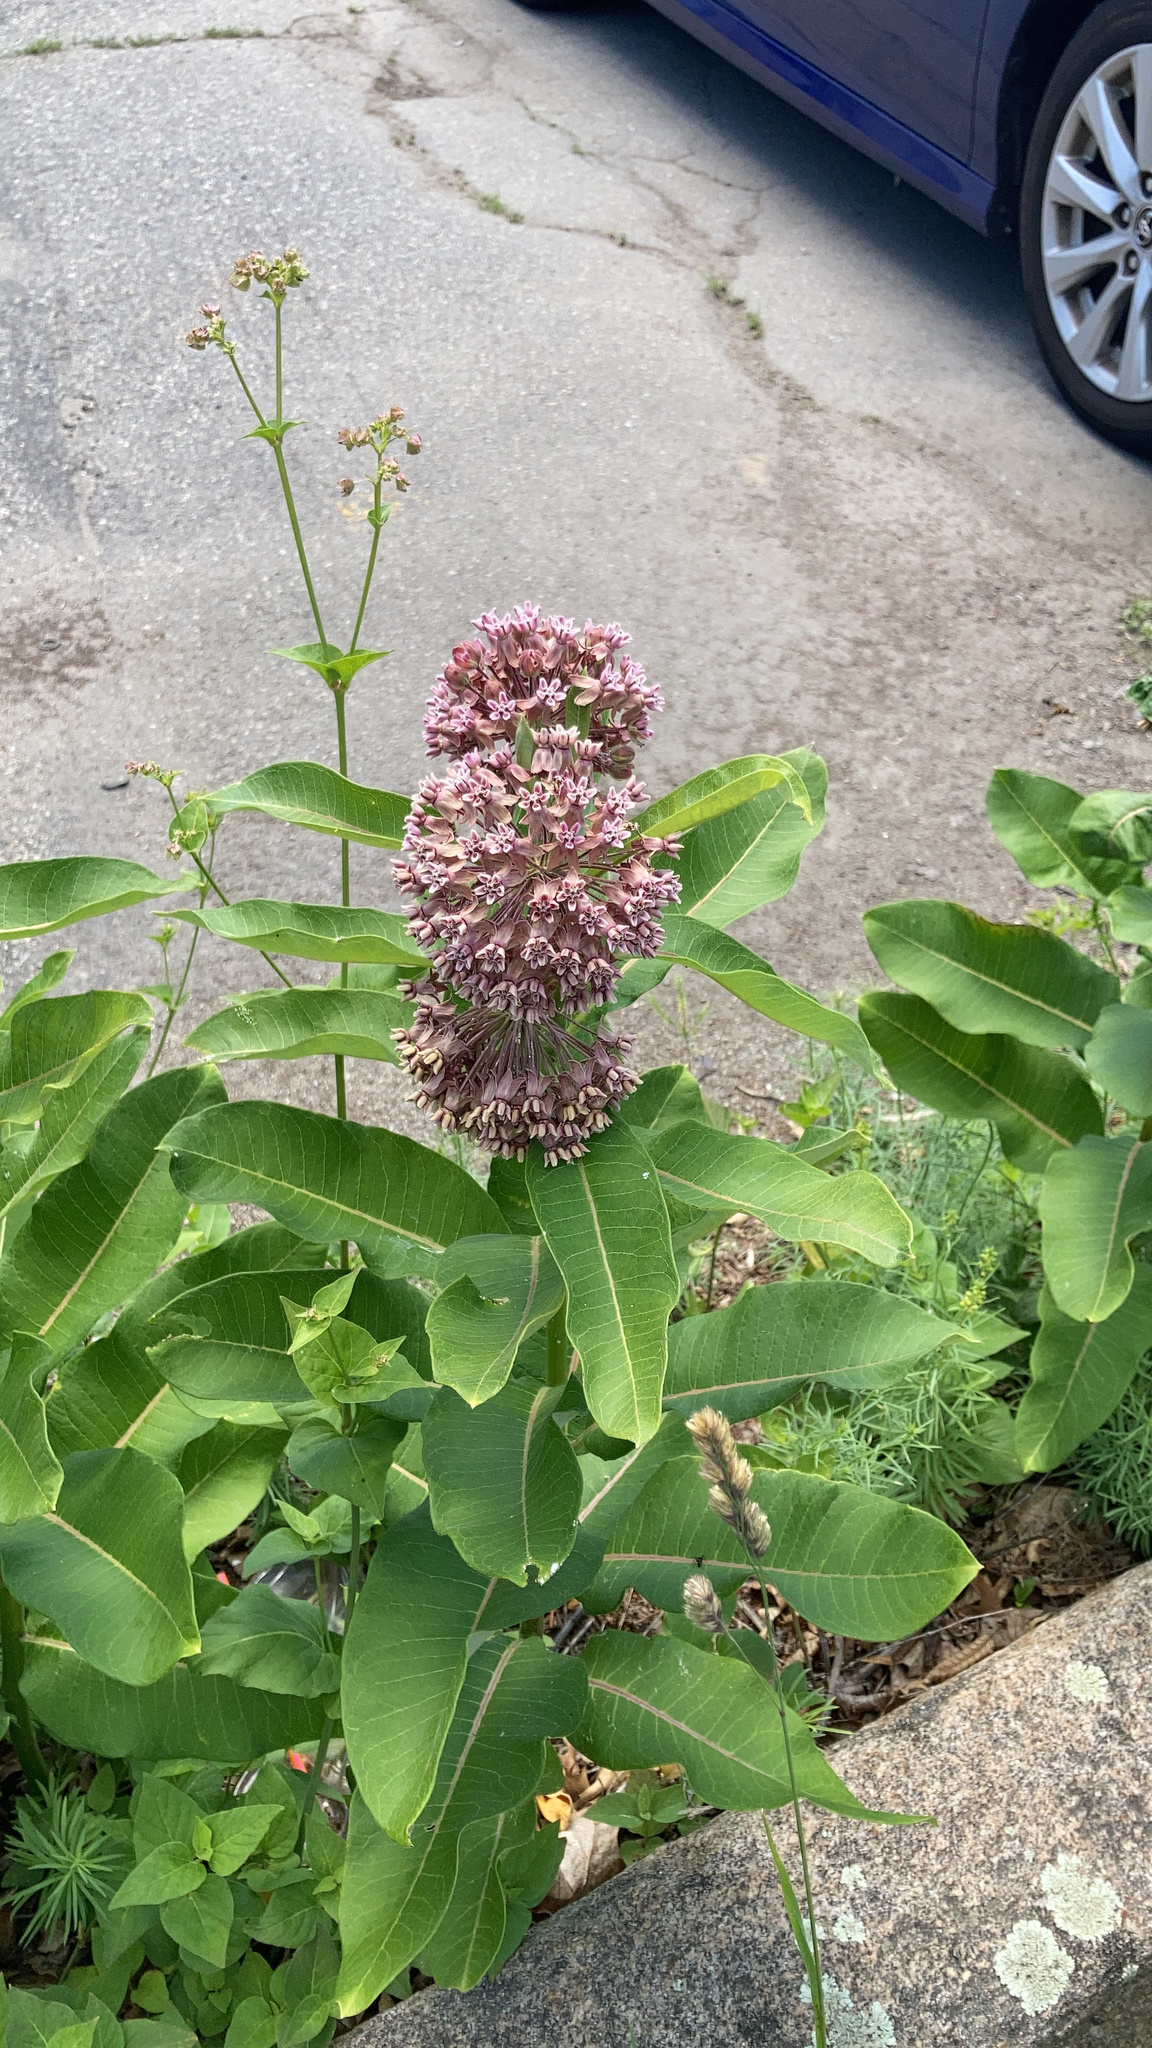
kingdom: Plantae
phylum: Tracheophyta
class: Magnoliopsida
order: Gentianales
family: Apocynaceae
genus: Asclepias
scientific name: Asclepias syriaca
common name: Common milkweed
